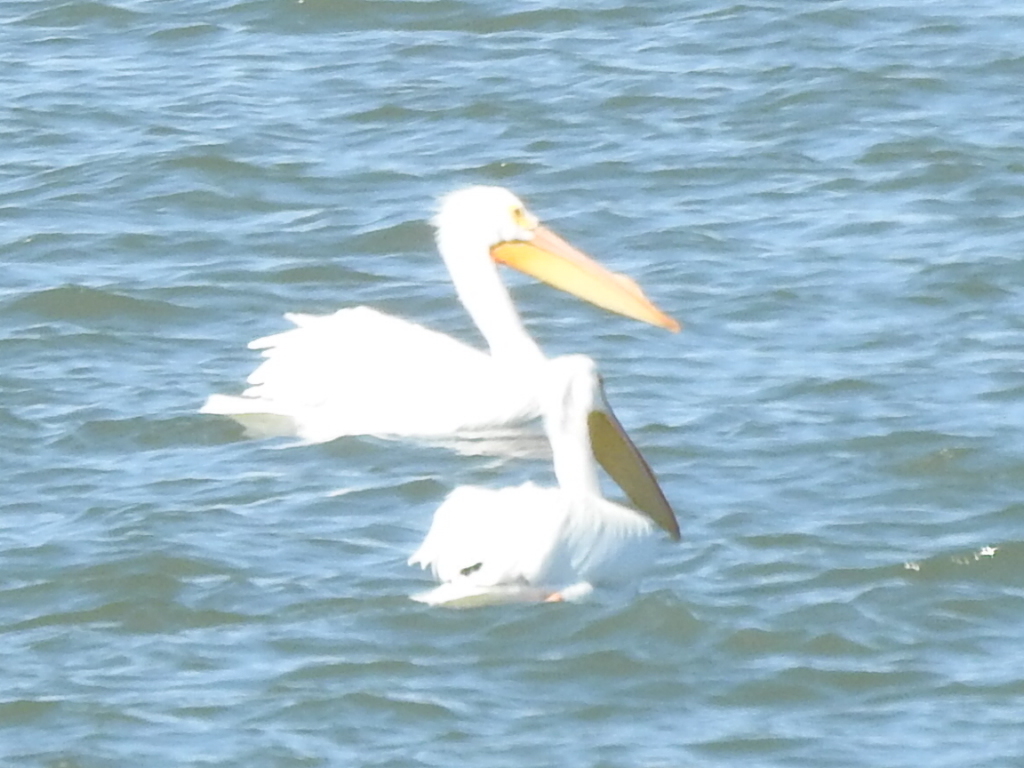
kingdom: Animalia
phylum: Chordata
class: Aves
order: Pelecaniformes
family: Pelecanidae
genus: Pelecanus
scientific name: Pelecanus erythrorhynchos
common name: American white pelican
